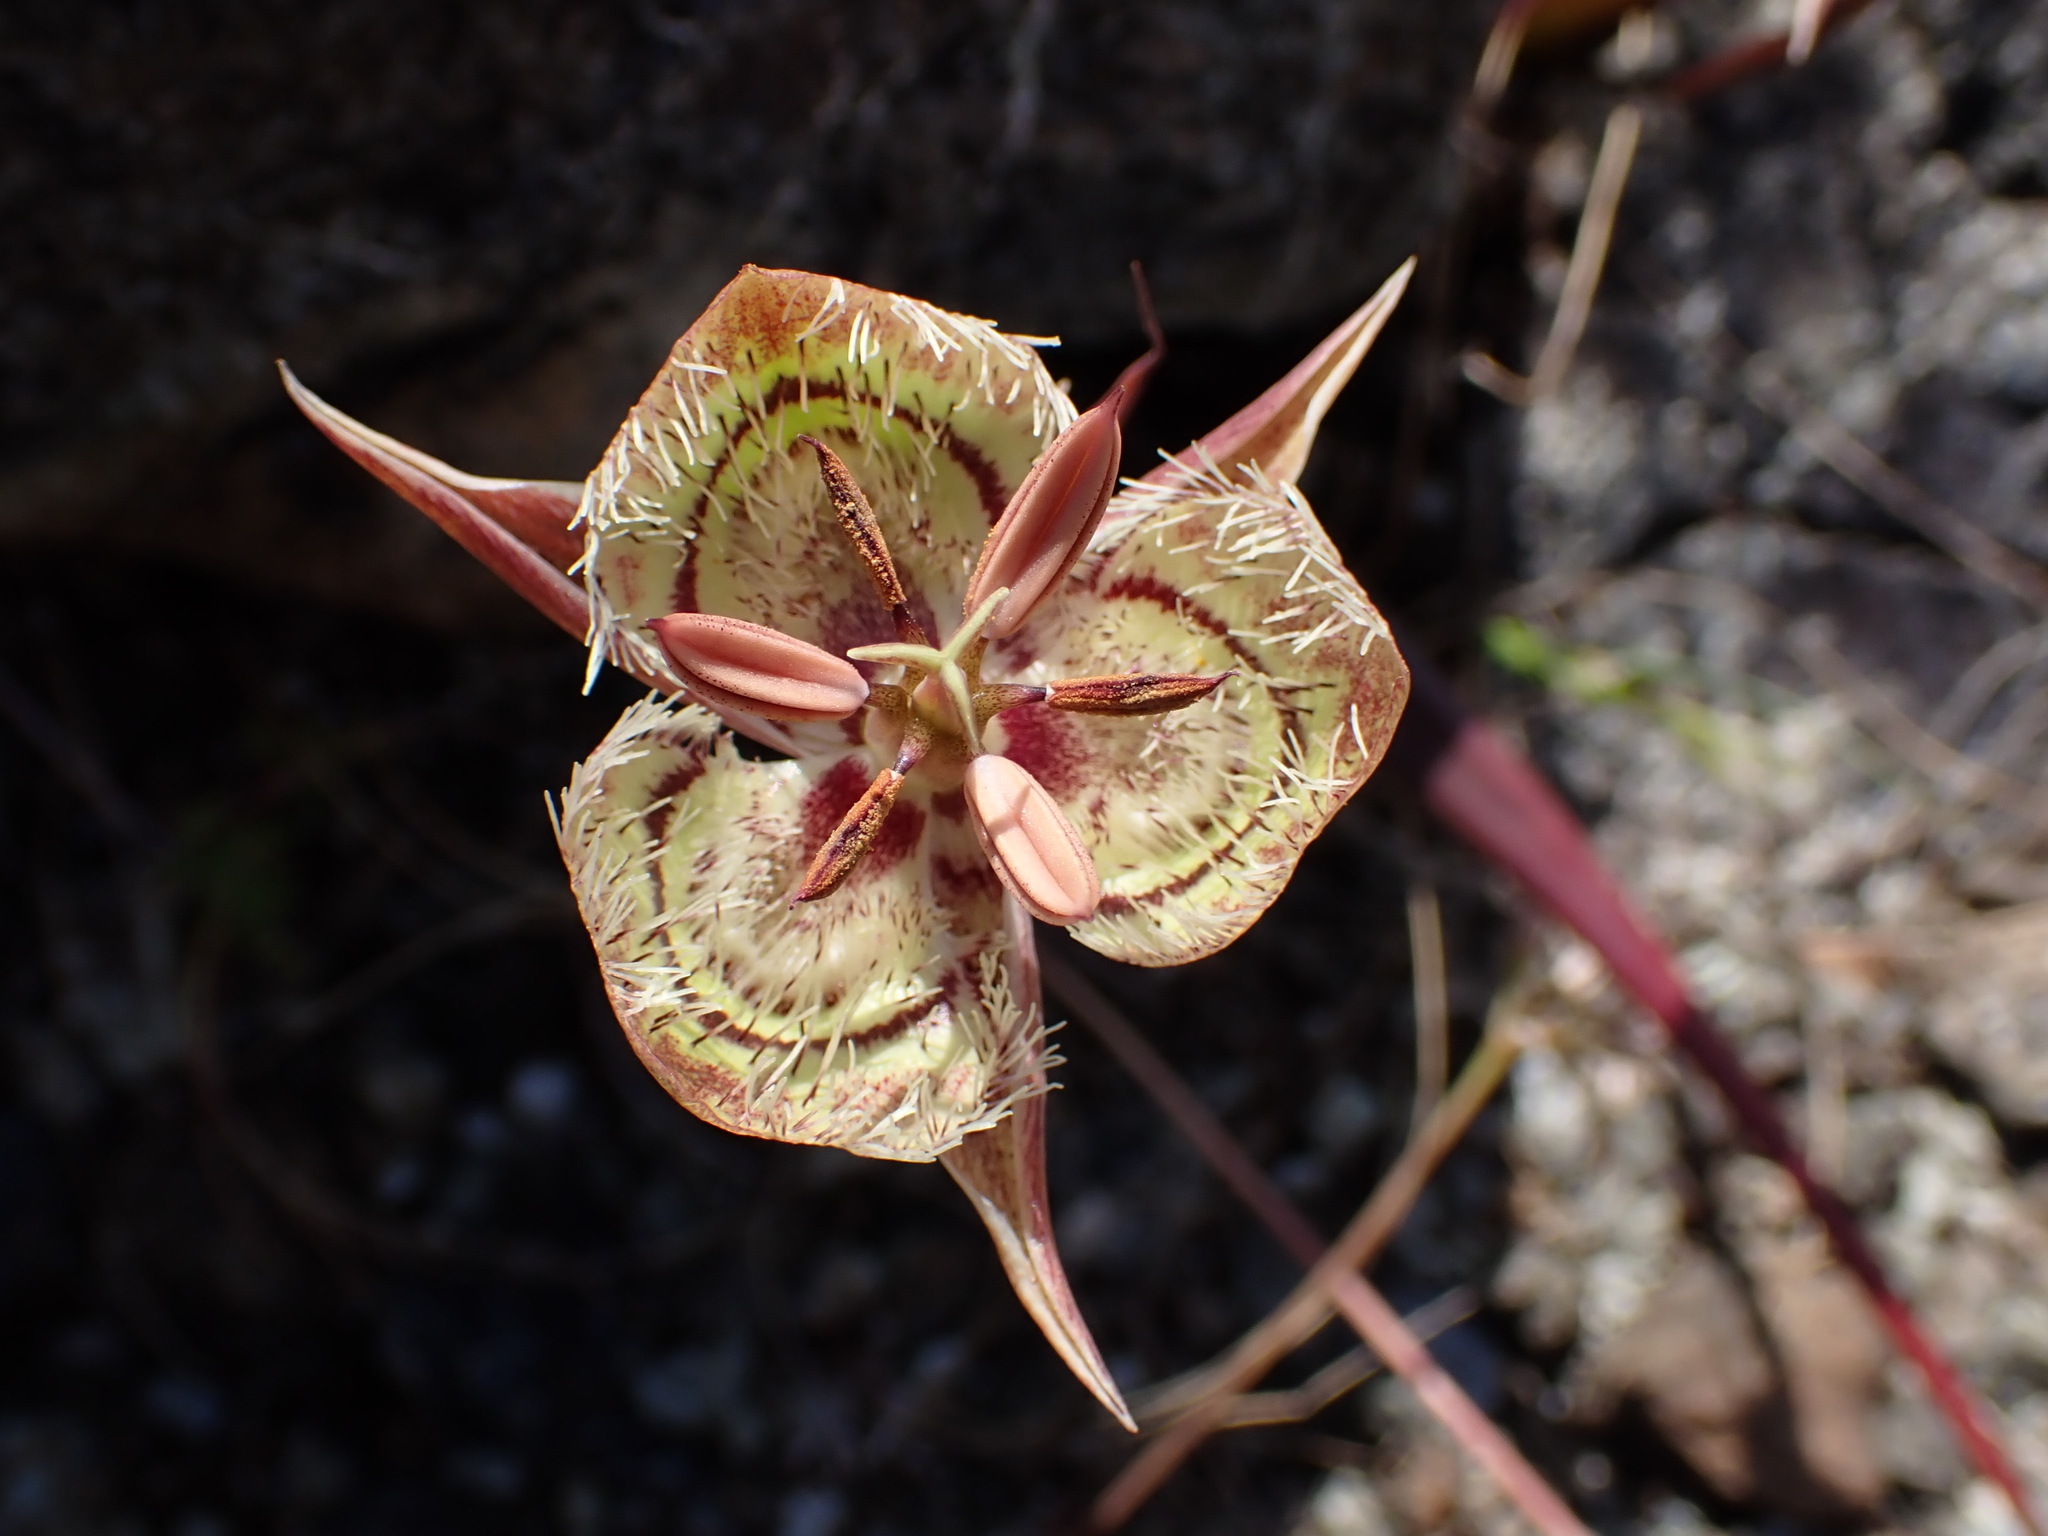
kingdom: Plantae
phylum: Tracheophyta
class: Liliopsida
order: Liliales
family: Liliaceae
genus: Calochortus
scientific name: Calochortus tiburonensis
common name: Tiburon mariposa-lily
